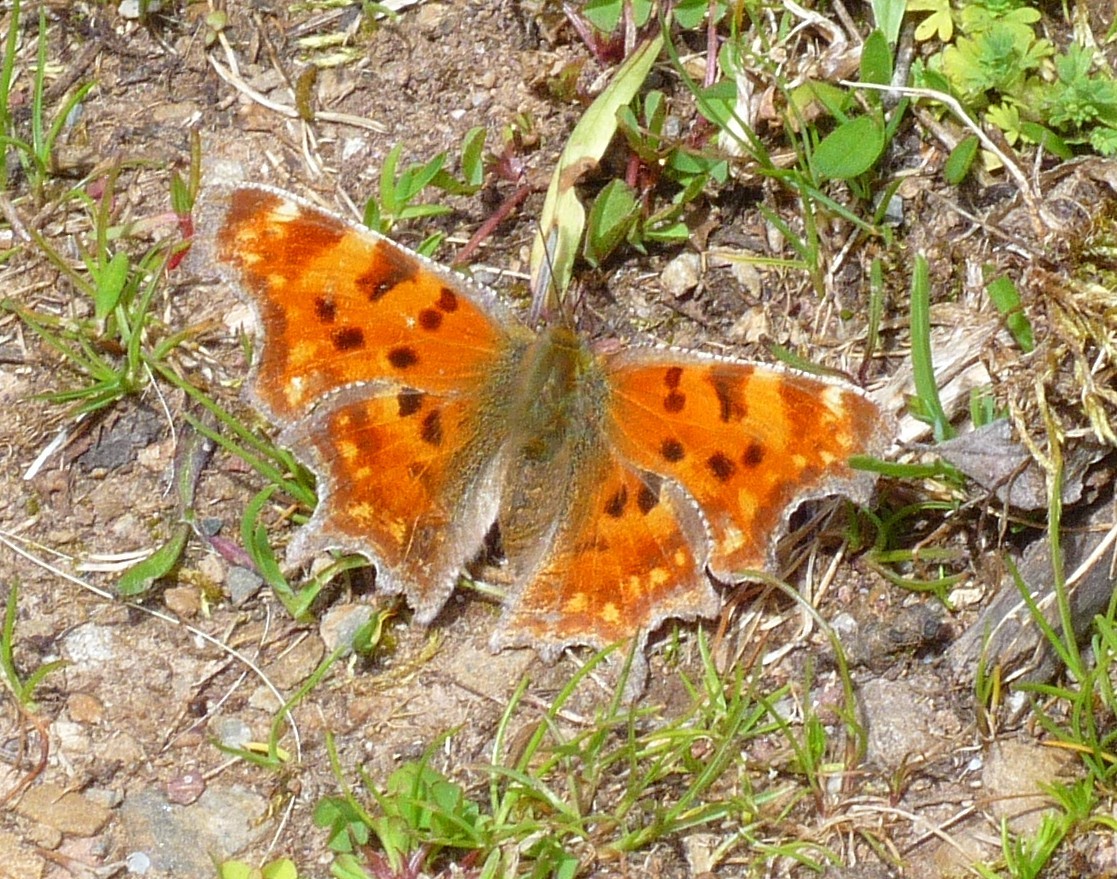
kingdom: Animalia
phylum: Arthropoda
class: Insecta
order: Lepidoptera
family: Nymphalidae
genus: Polygonia
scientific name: Polygonia c-album
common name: Comma
